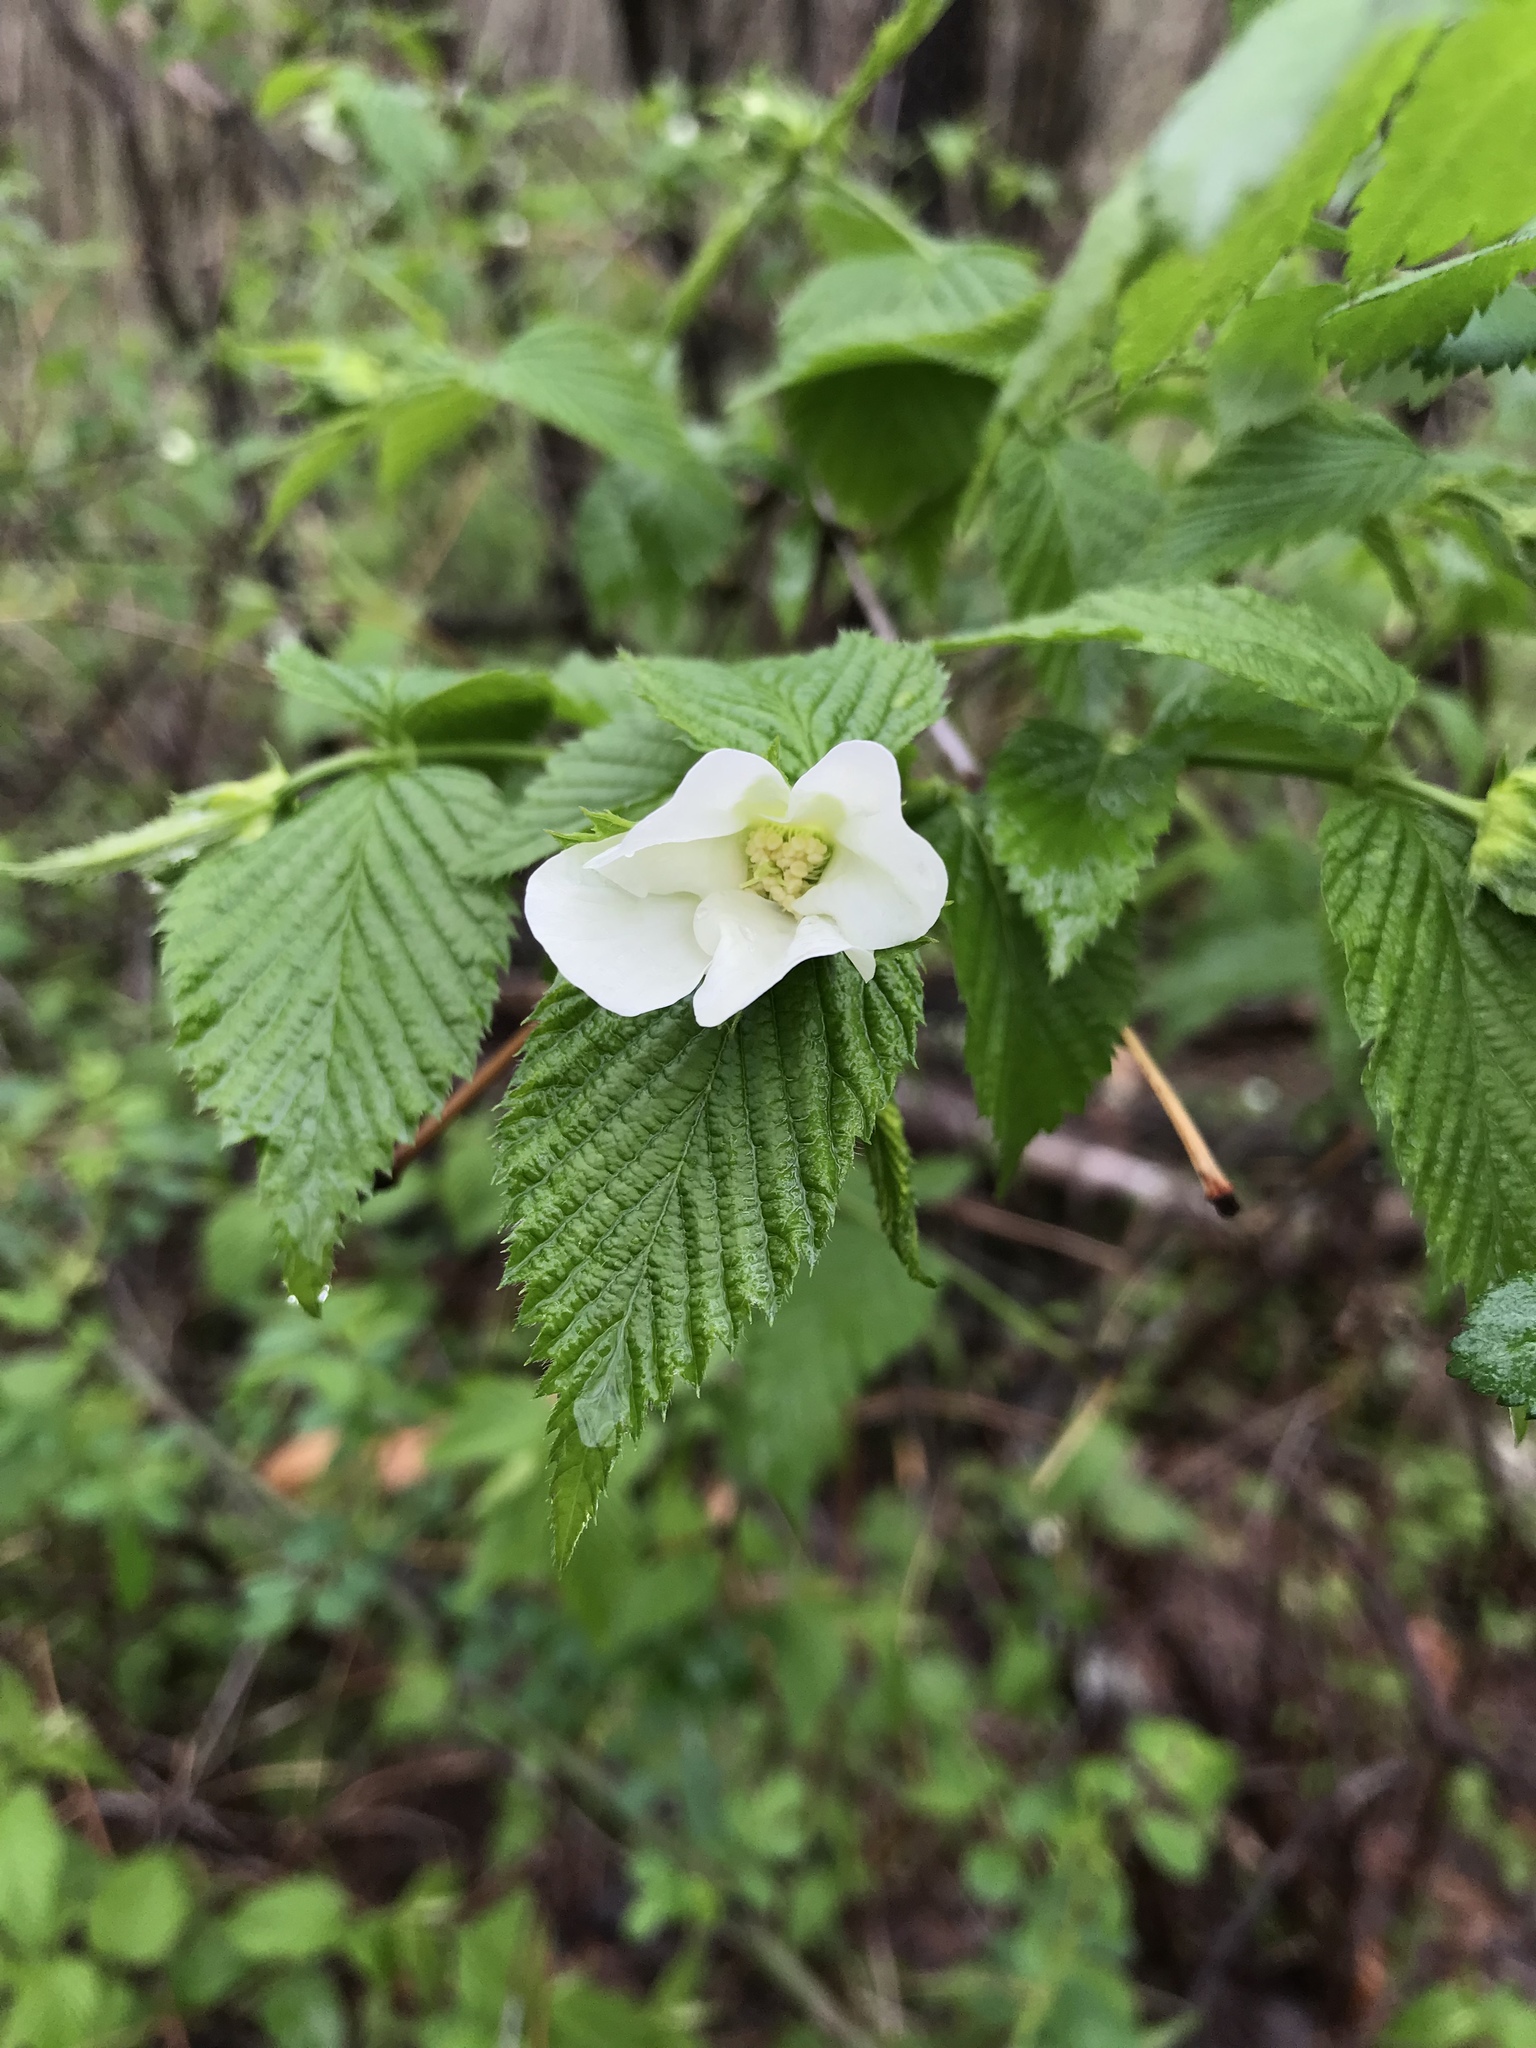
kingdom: Plantae
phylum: Tracheophyta
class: Magnoliopsida
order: Rosales
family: Rosaceae
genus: Rhodotypos
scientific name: Rhodotypos scandens
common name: Jetbead
